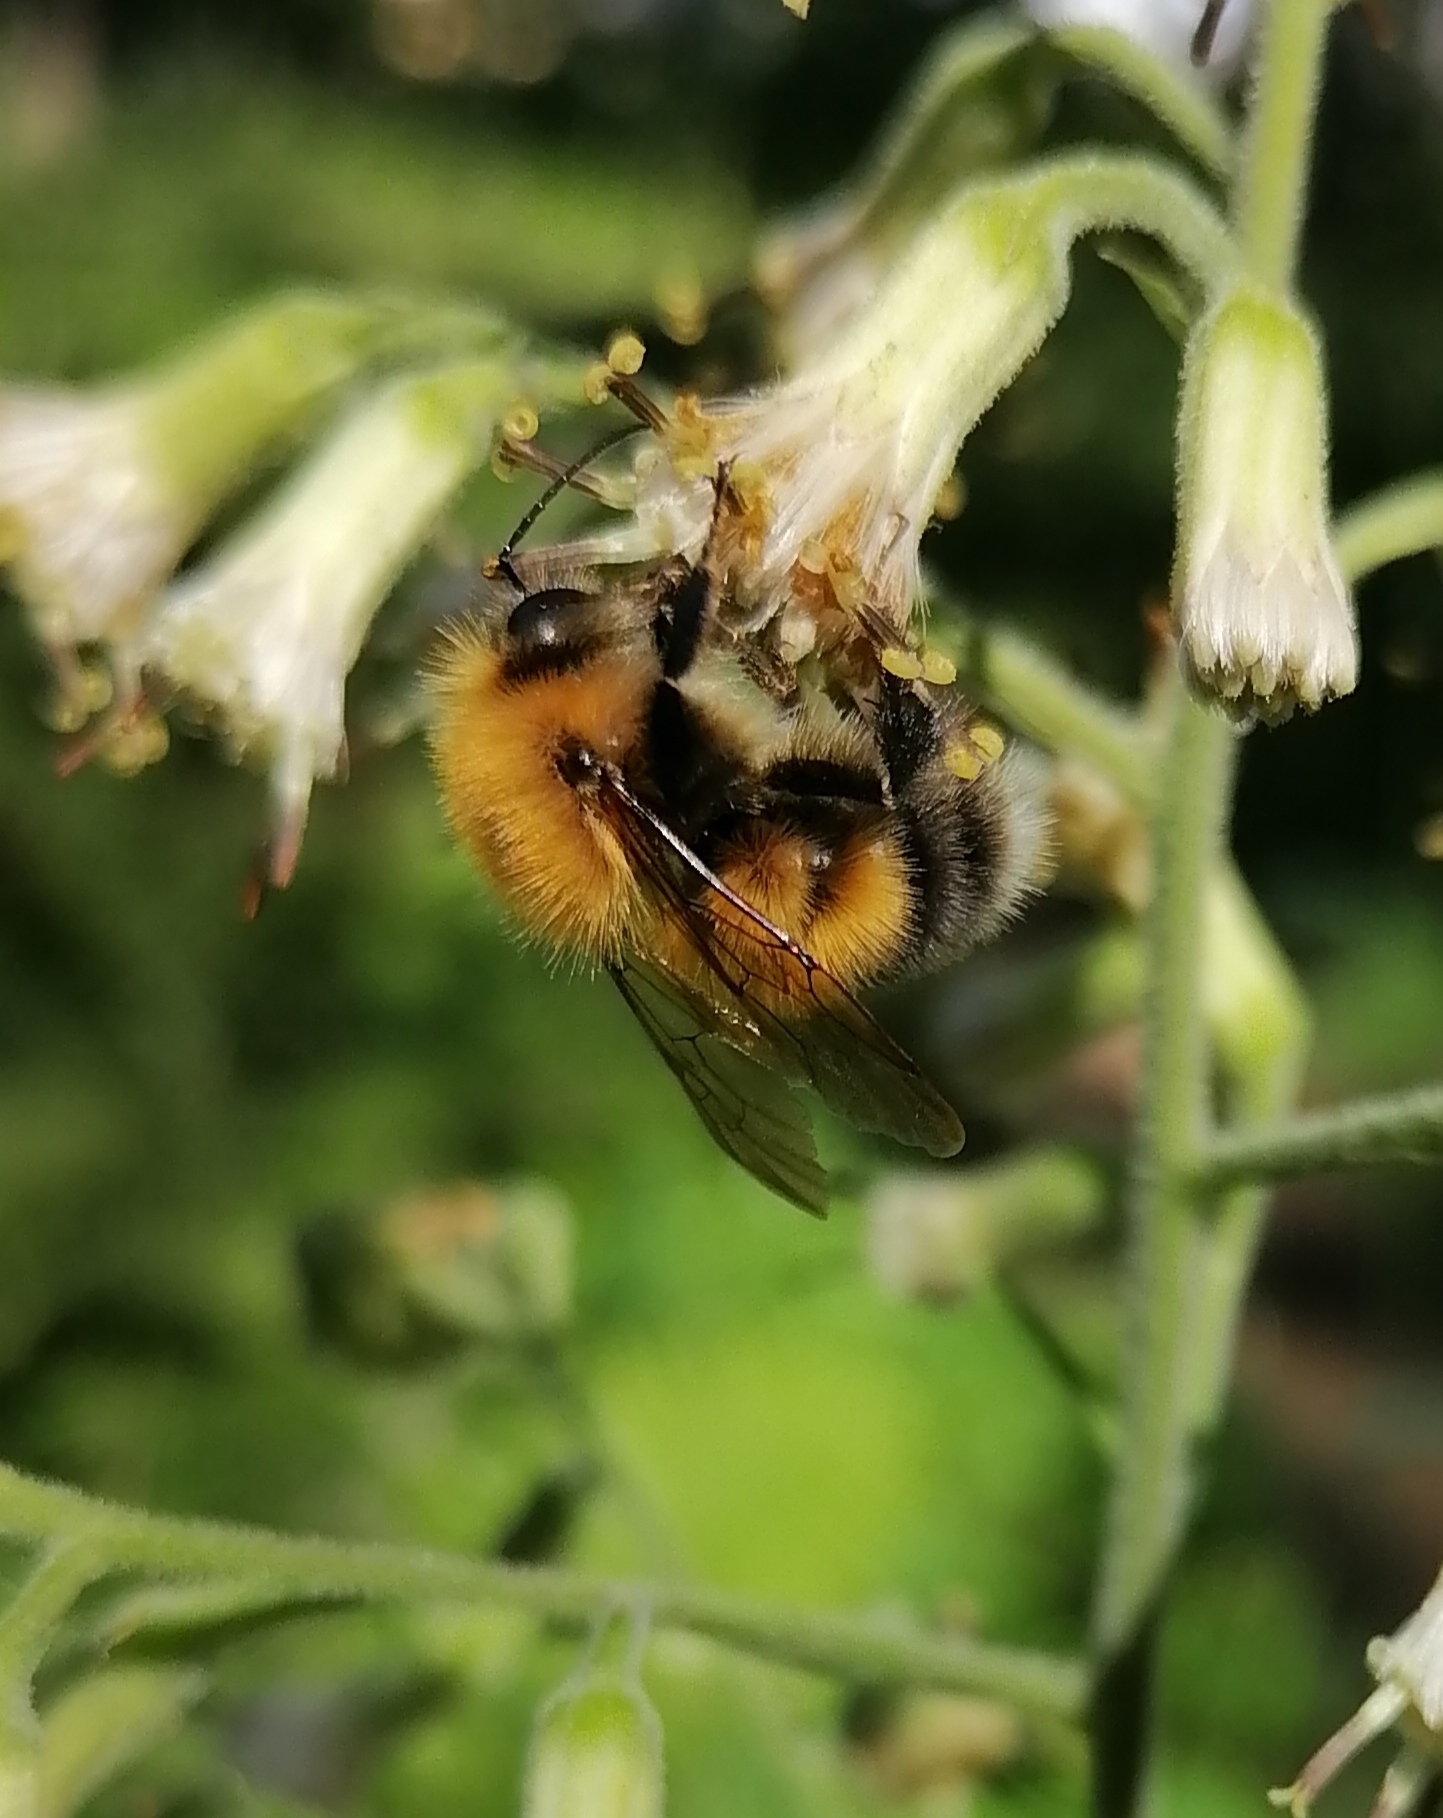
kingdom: Animalia
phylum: Arthropoda
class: Insecta
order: Hymenoptera
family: Apidae
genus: Bombus
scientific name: Bombus hypnorum
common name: New garden bumblebee
